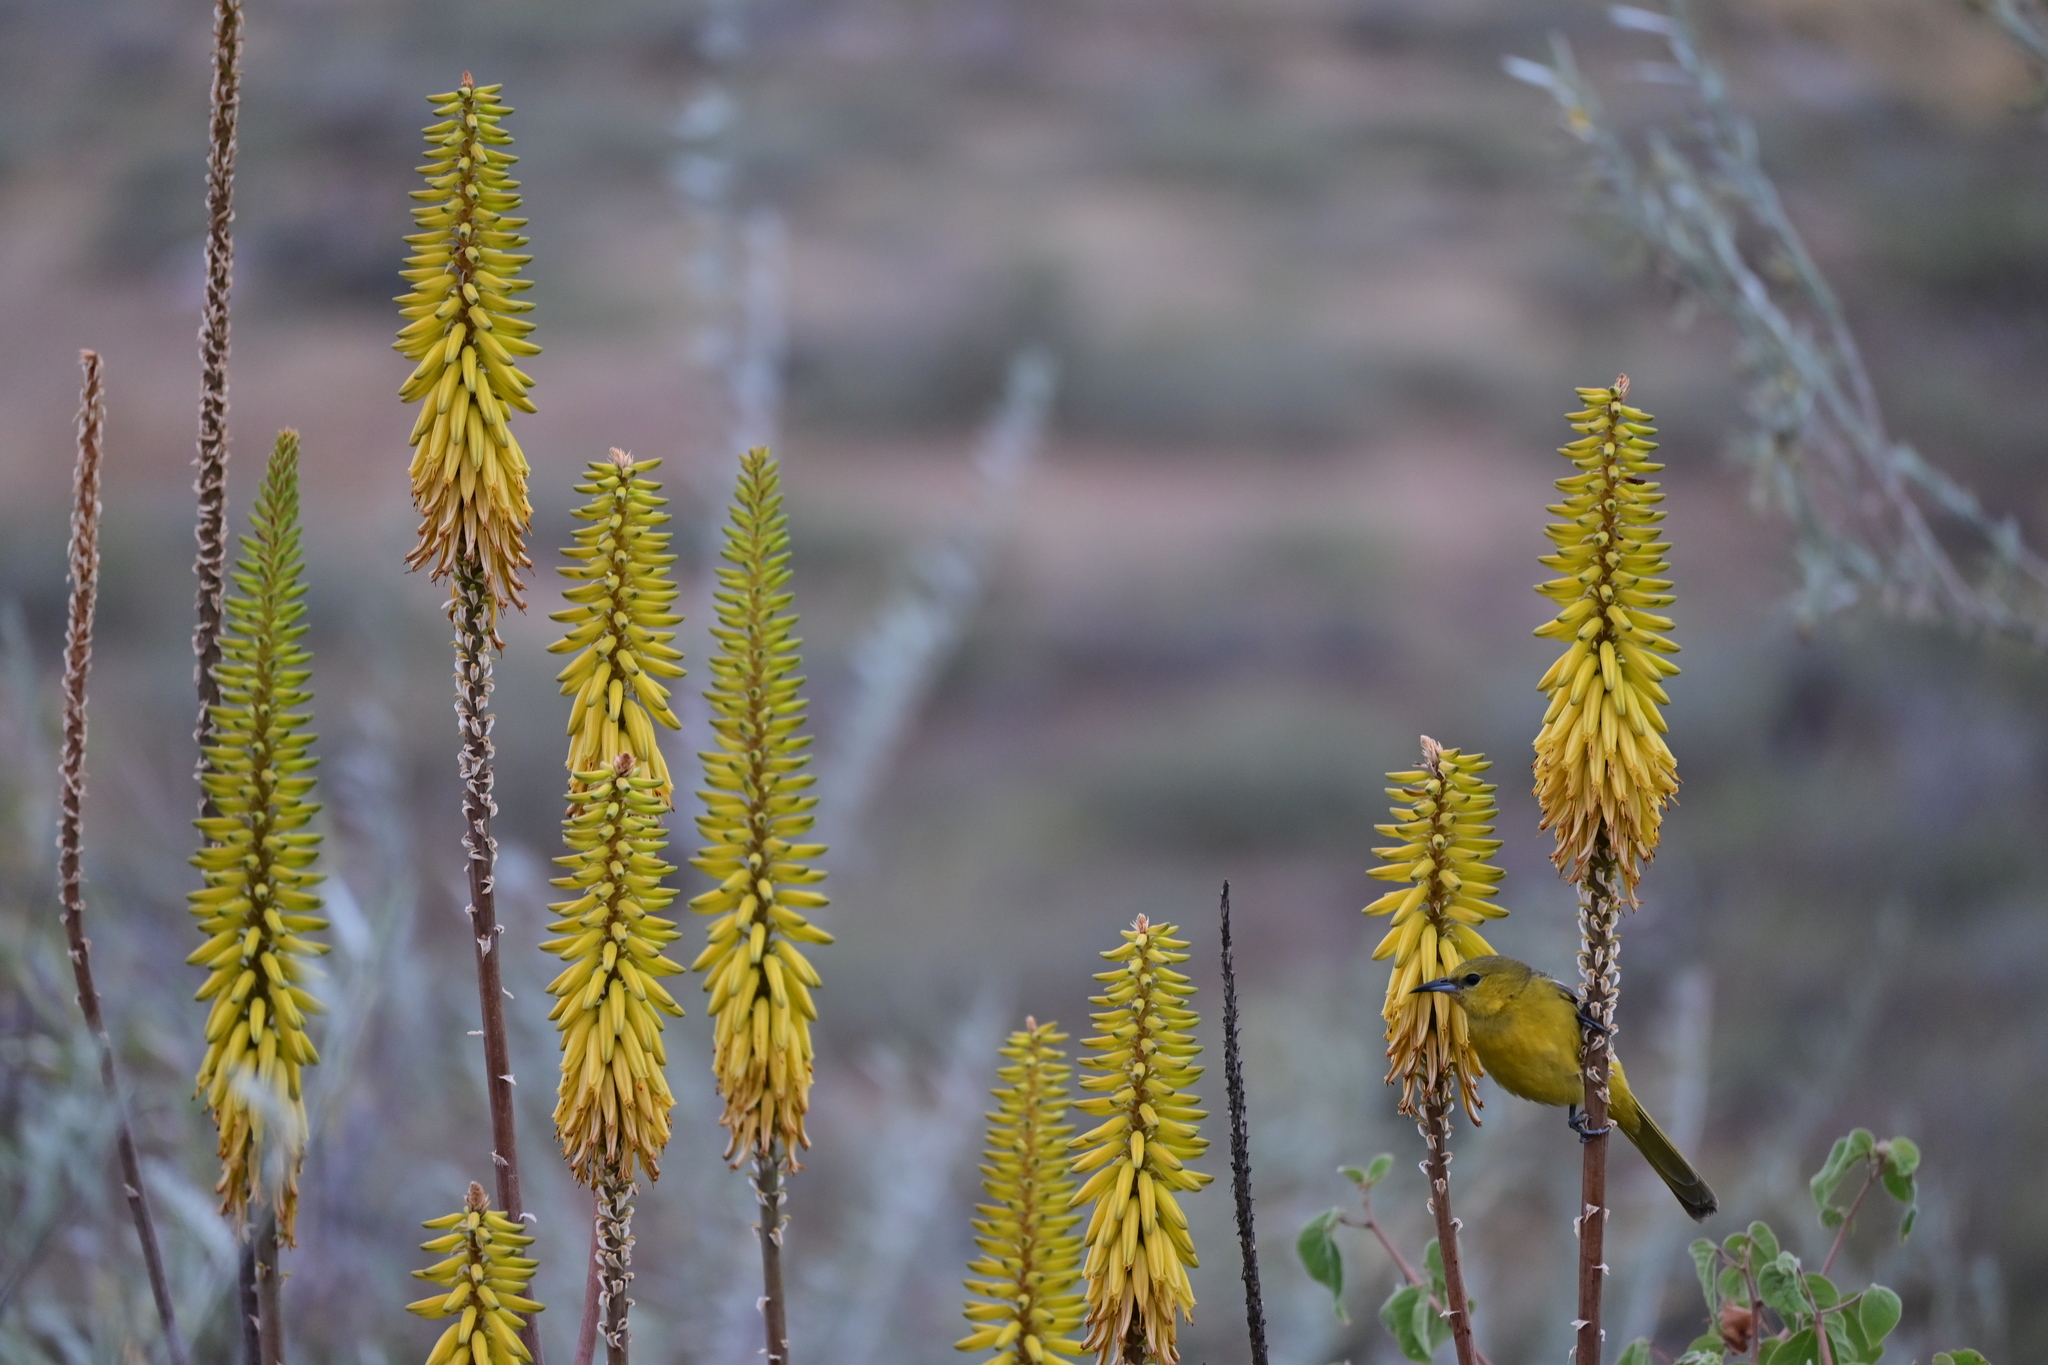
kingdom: Animalia
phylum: Chordata
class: Aves
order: Passeriformes
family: Icteridae
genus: Icterus
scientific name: Icterus cucullatus
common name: Hooded oriole
